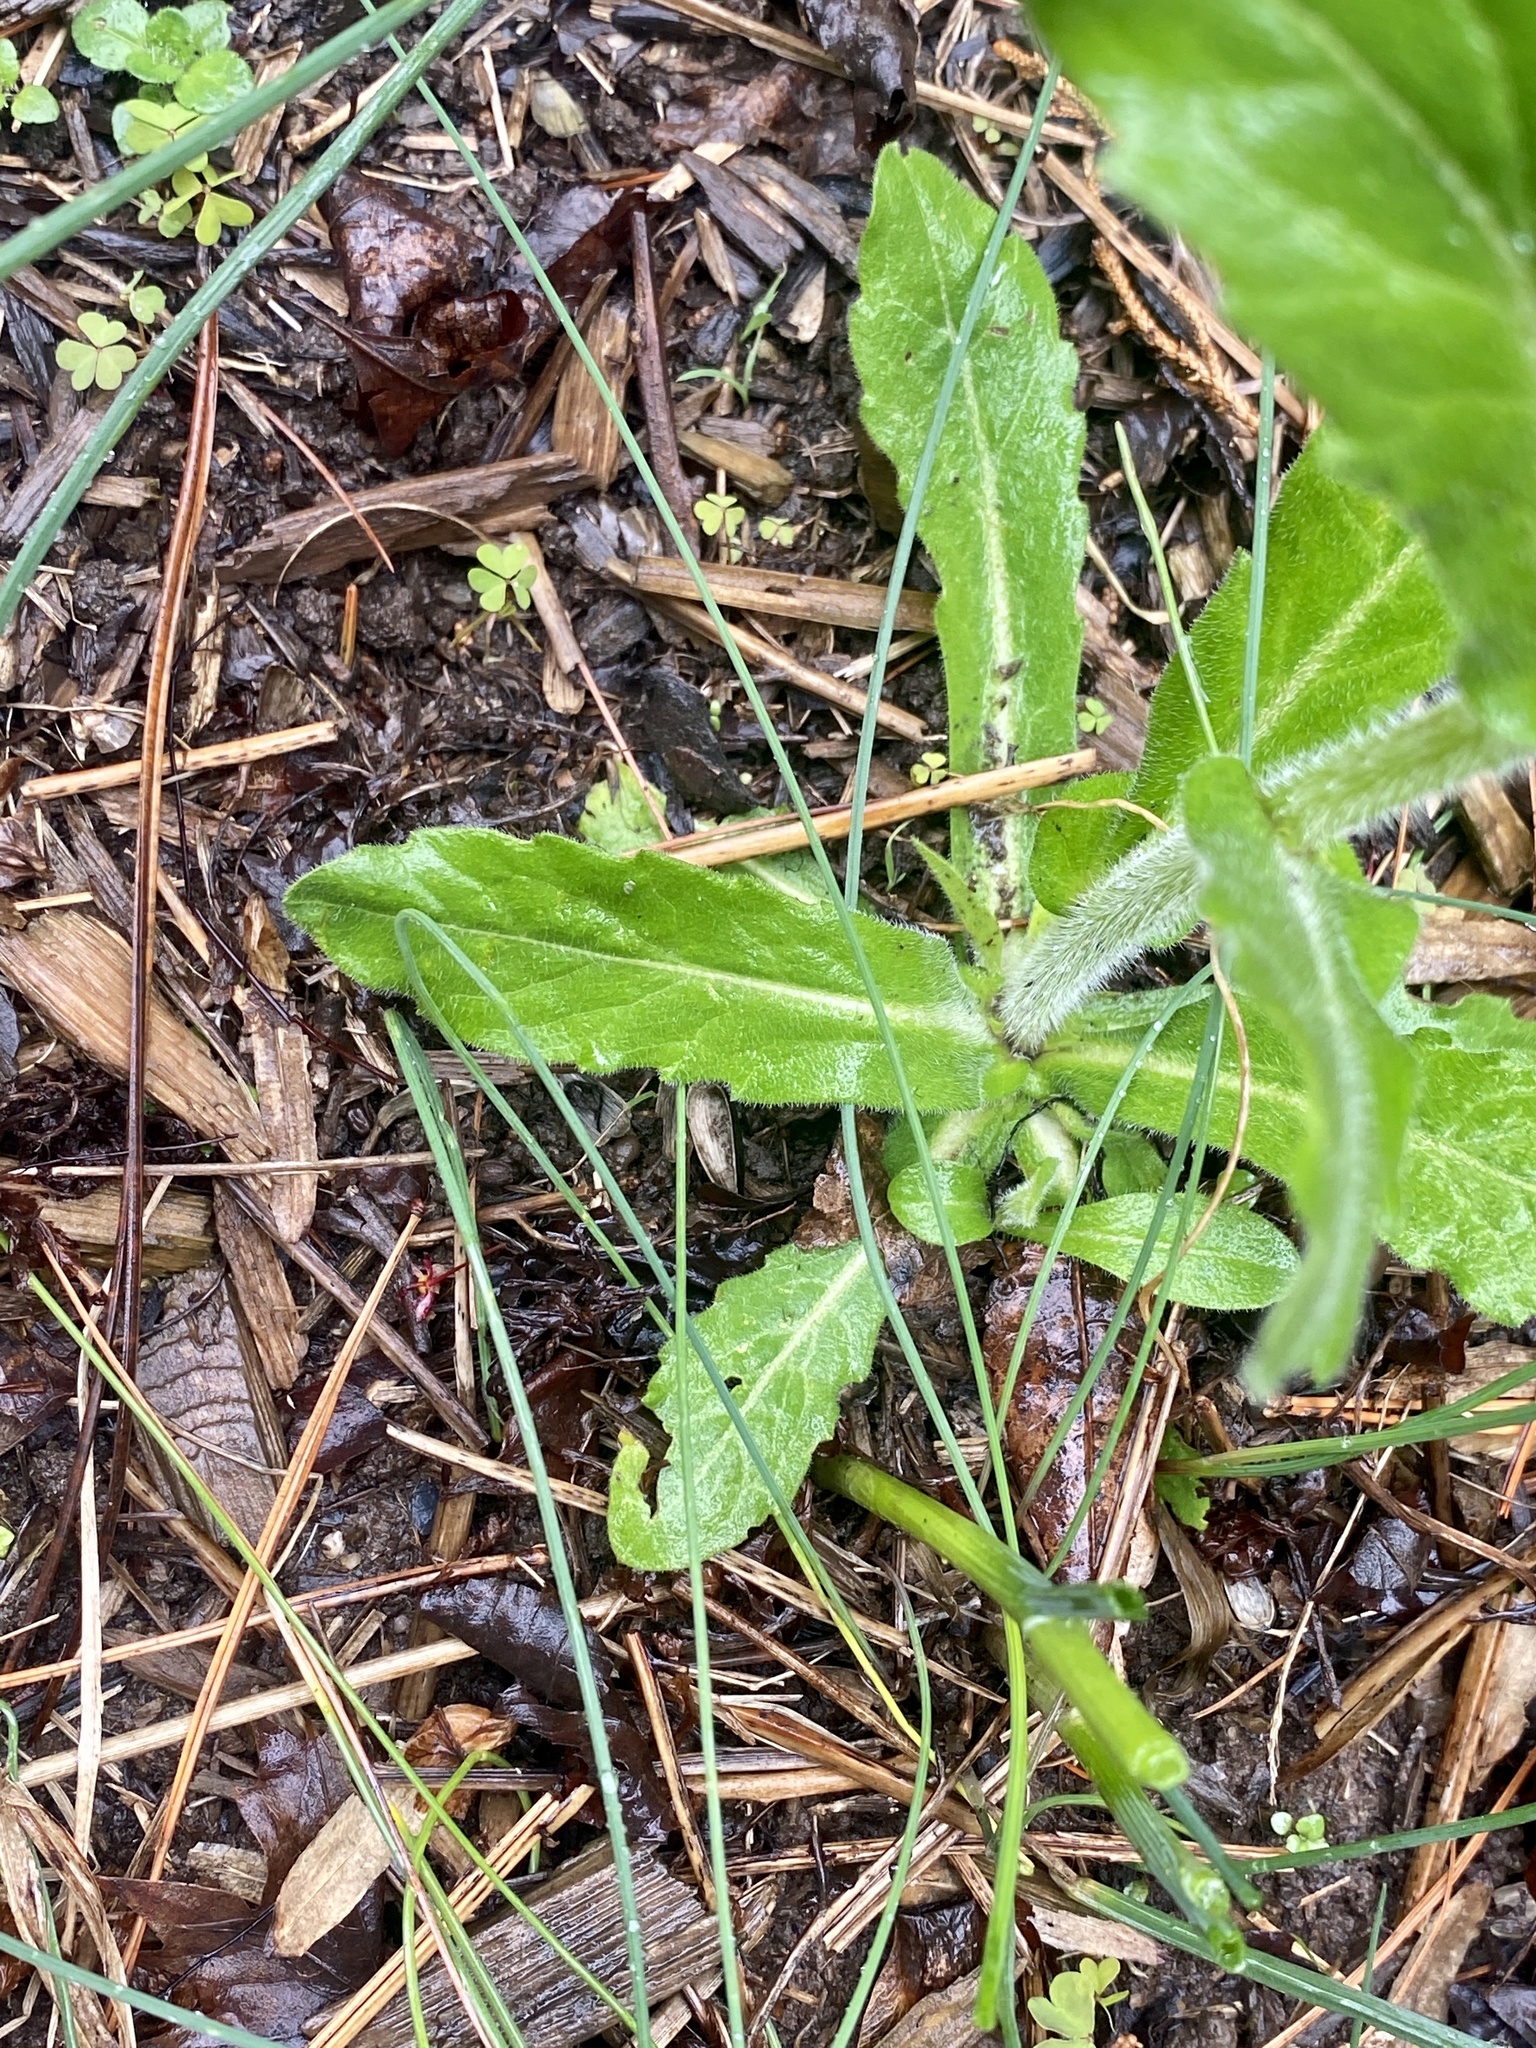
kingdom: Plantae
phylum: Tracheophyta
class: Magnoliopsida
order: Asterales
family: Asteraceae
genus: Erigeron
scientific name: Erigeron philadelphicus
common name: Robin's-plantain
